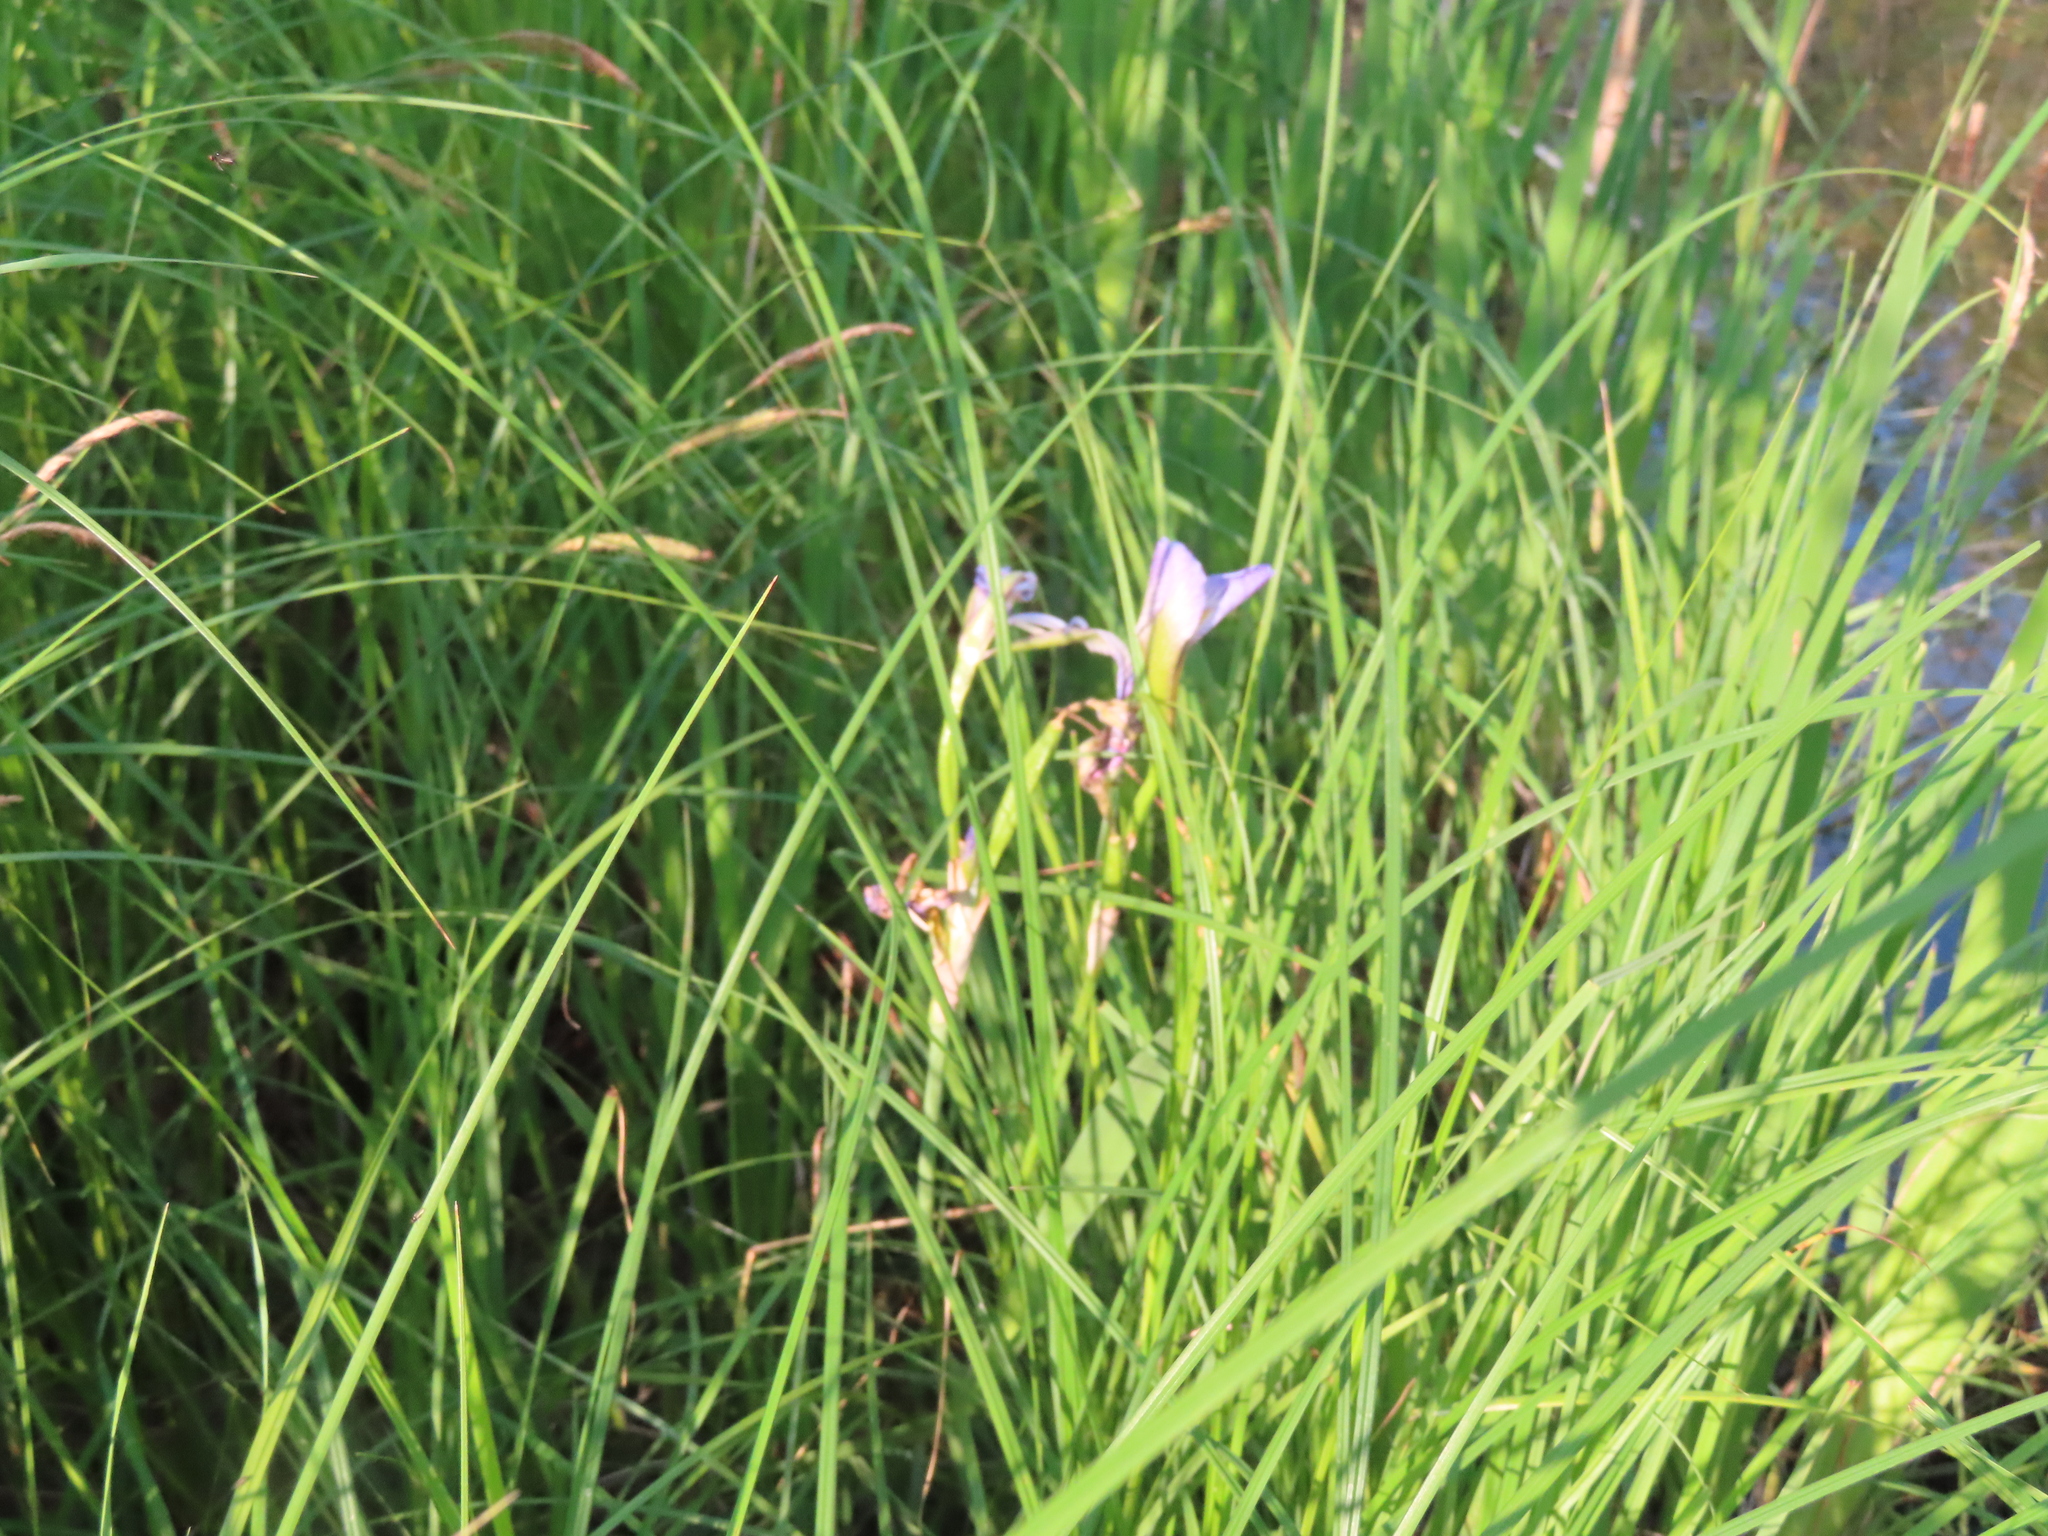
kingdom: Plantae
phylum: Tracheophyta
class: Liliopsida
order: Asparagales
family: Iridaceae
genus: Iris
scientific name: Iris virginica
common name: Southern blue flag
